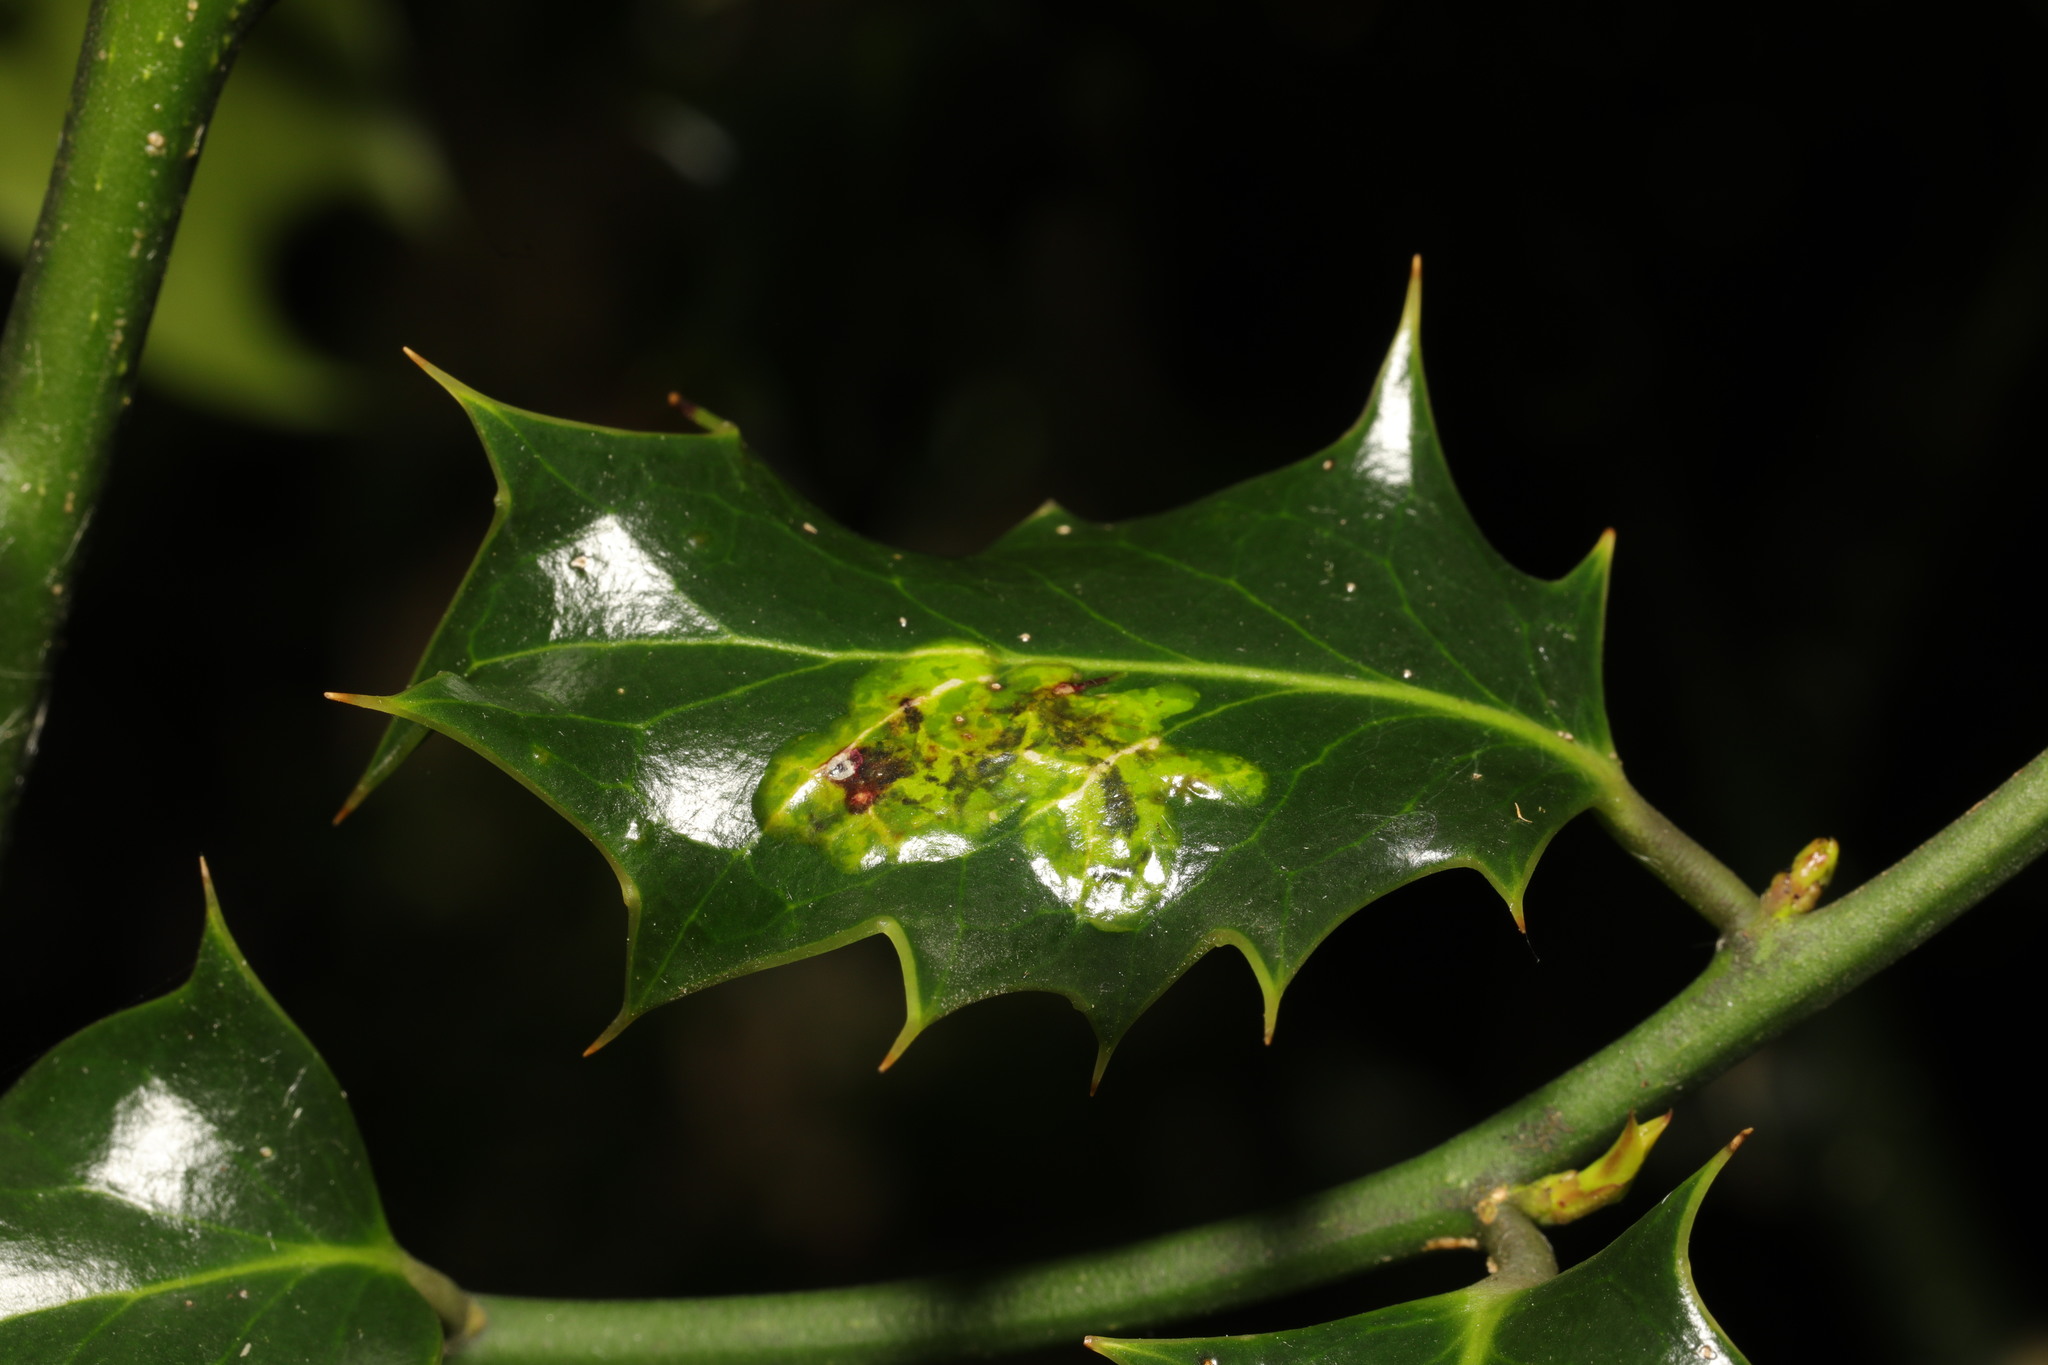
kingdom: Animalia
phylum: Arthropoda
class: Insecta
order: Diptera
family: Agromyzidae
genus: Phytomyza
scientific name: Phytomyza ilicis
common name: Holly leafminer
